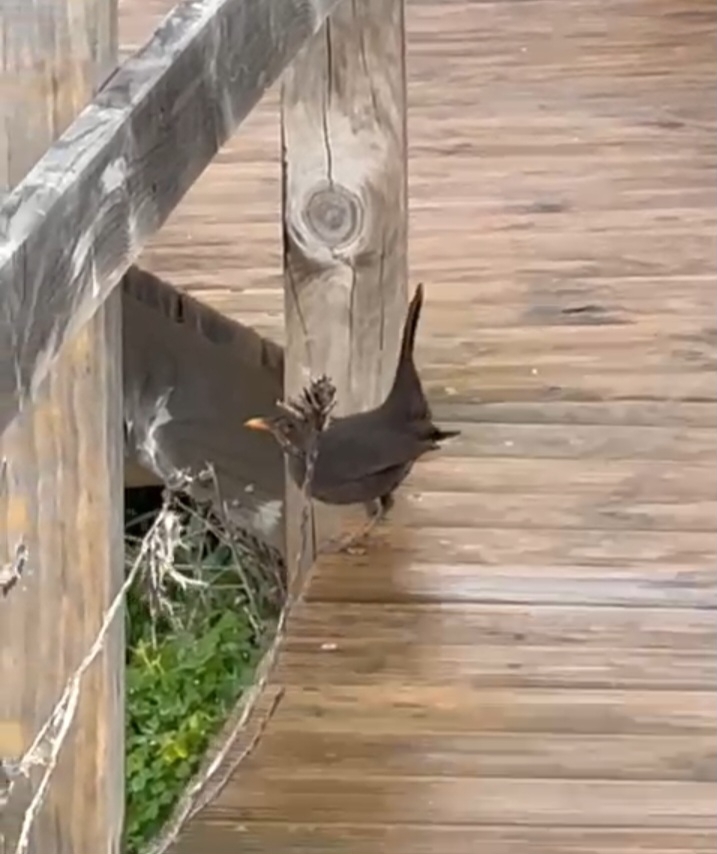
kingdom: Animalia
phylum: Chordata
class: Aves
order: Passeriformes
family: Turdidae
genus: Turdus
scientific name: Turdus merula
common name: Common blackbird
